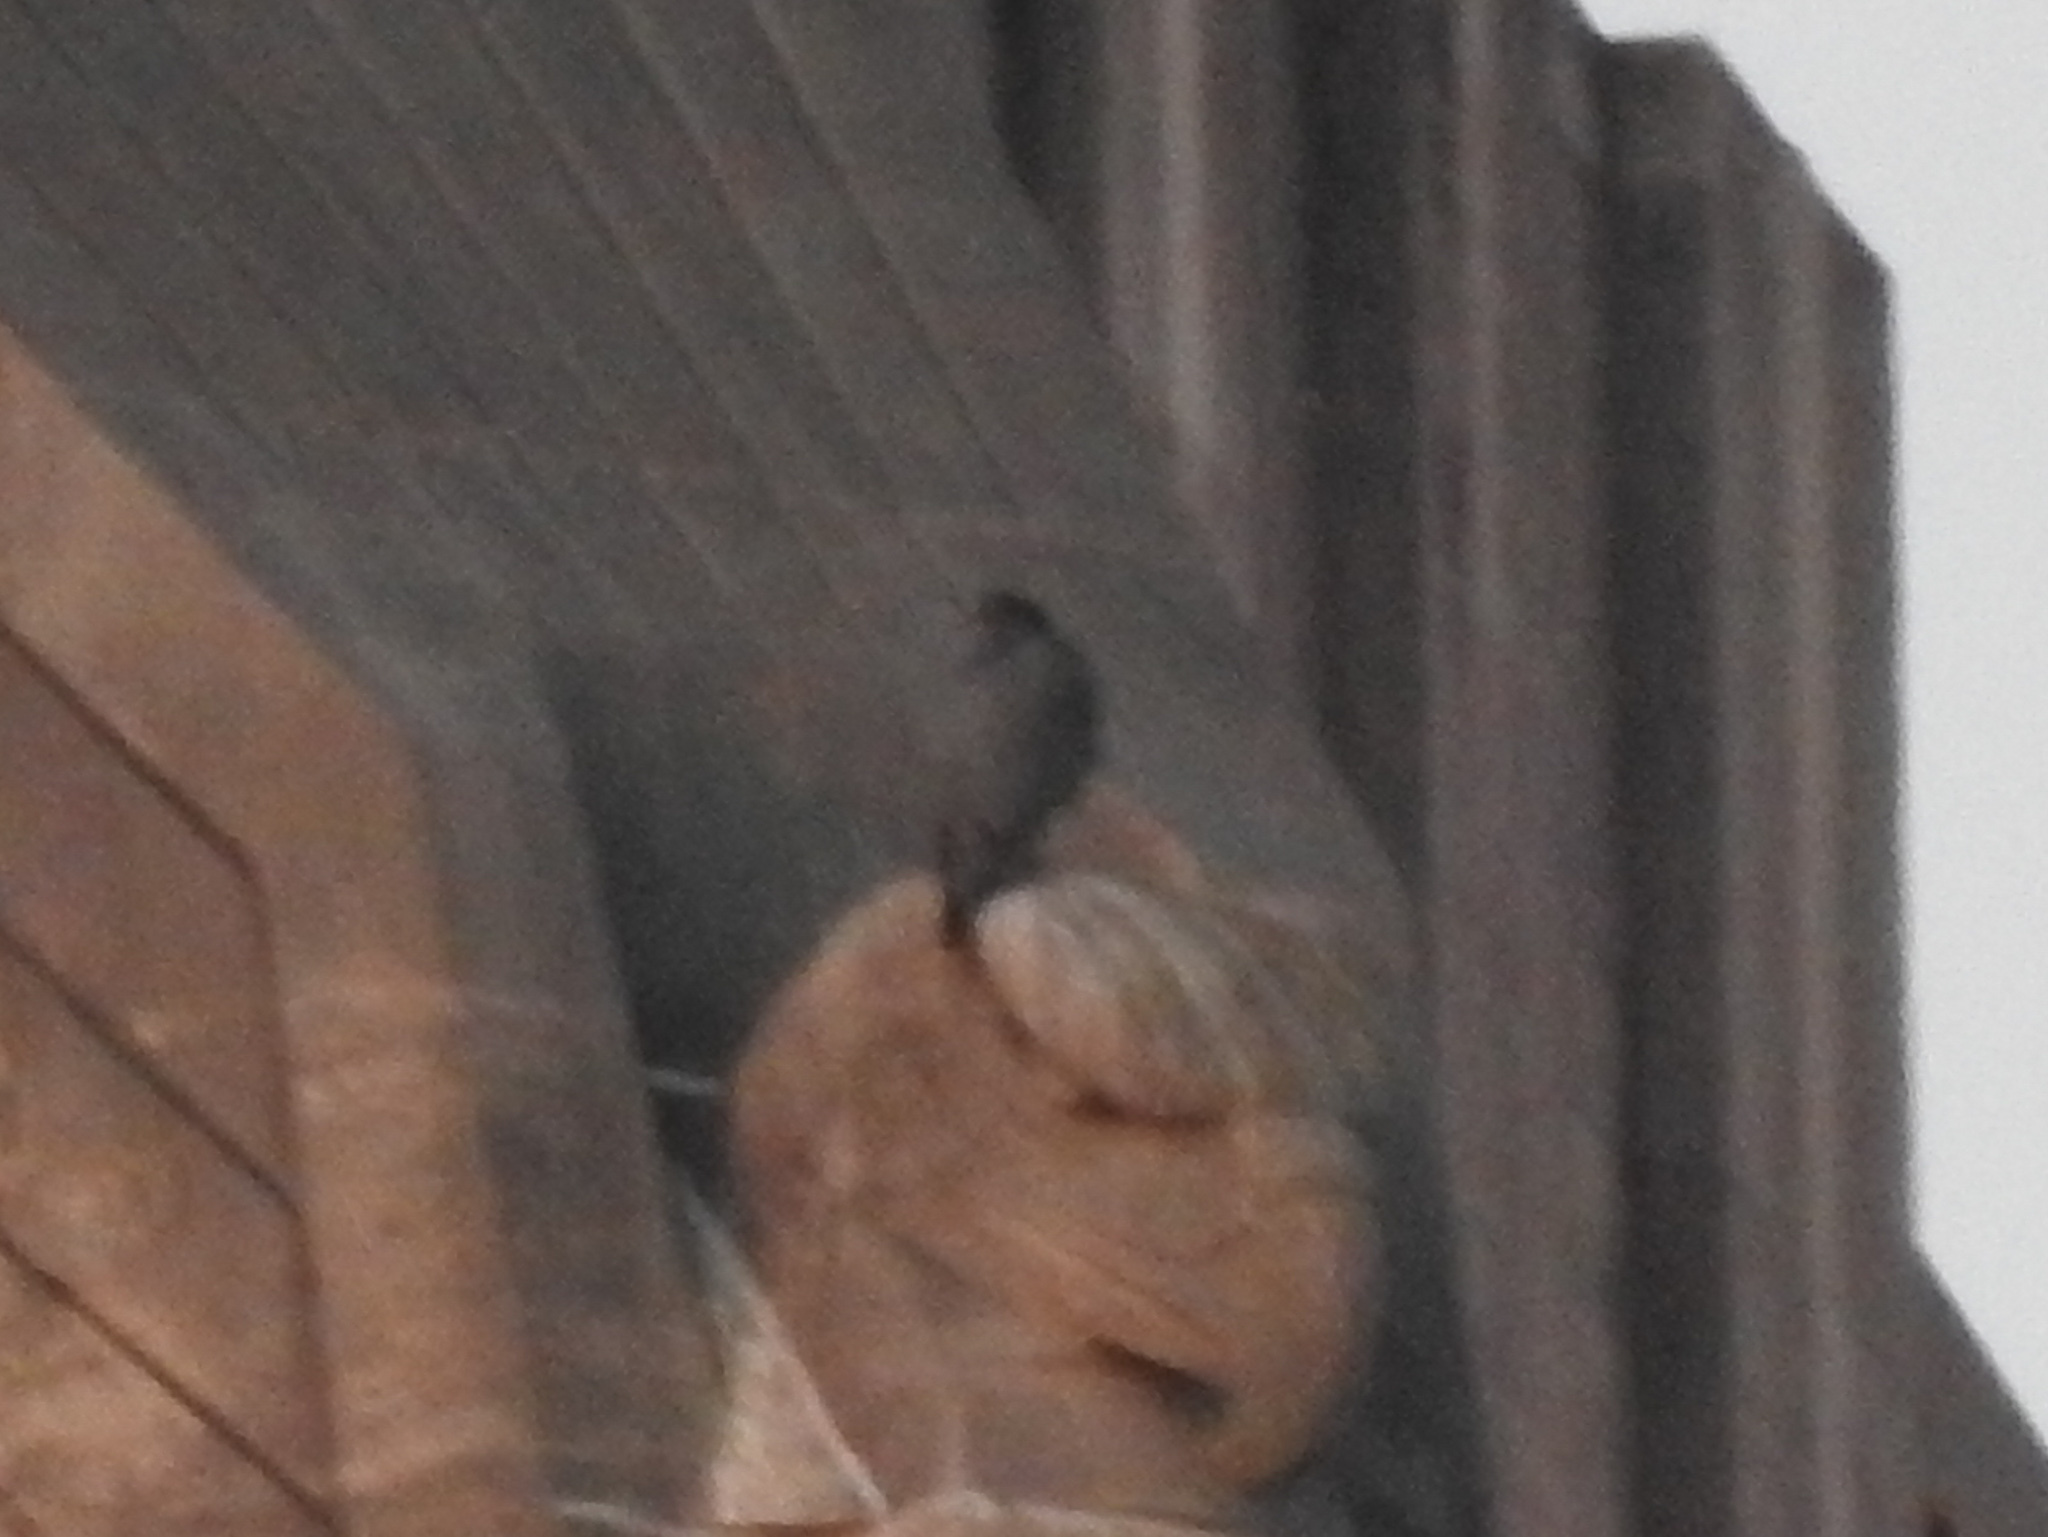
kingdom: Animalia
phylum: Chordata
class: Aves
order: Falconiformes
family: Falconidae
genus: Falco
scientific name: Falco peregrinus
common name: Peregrine falcon
